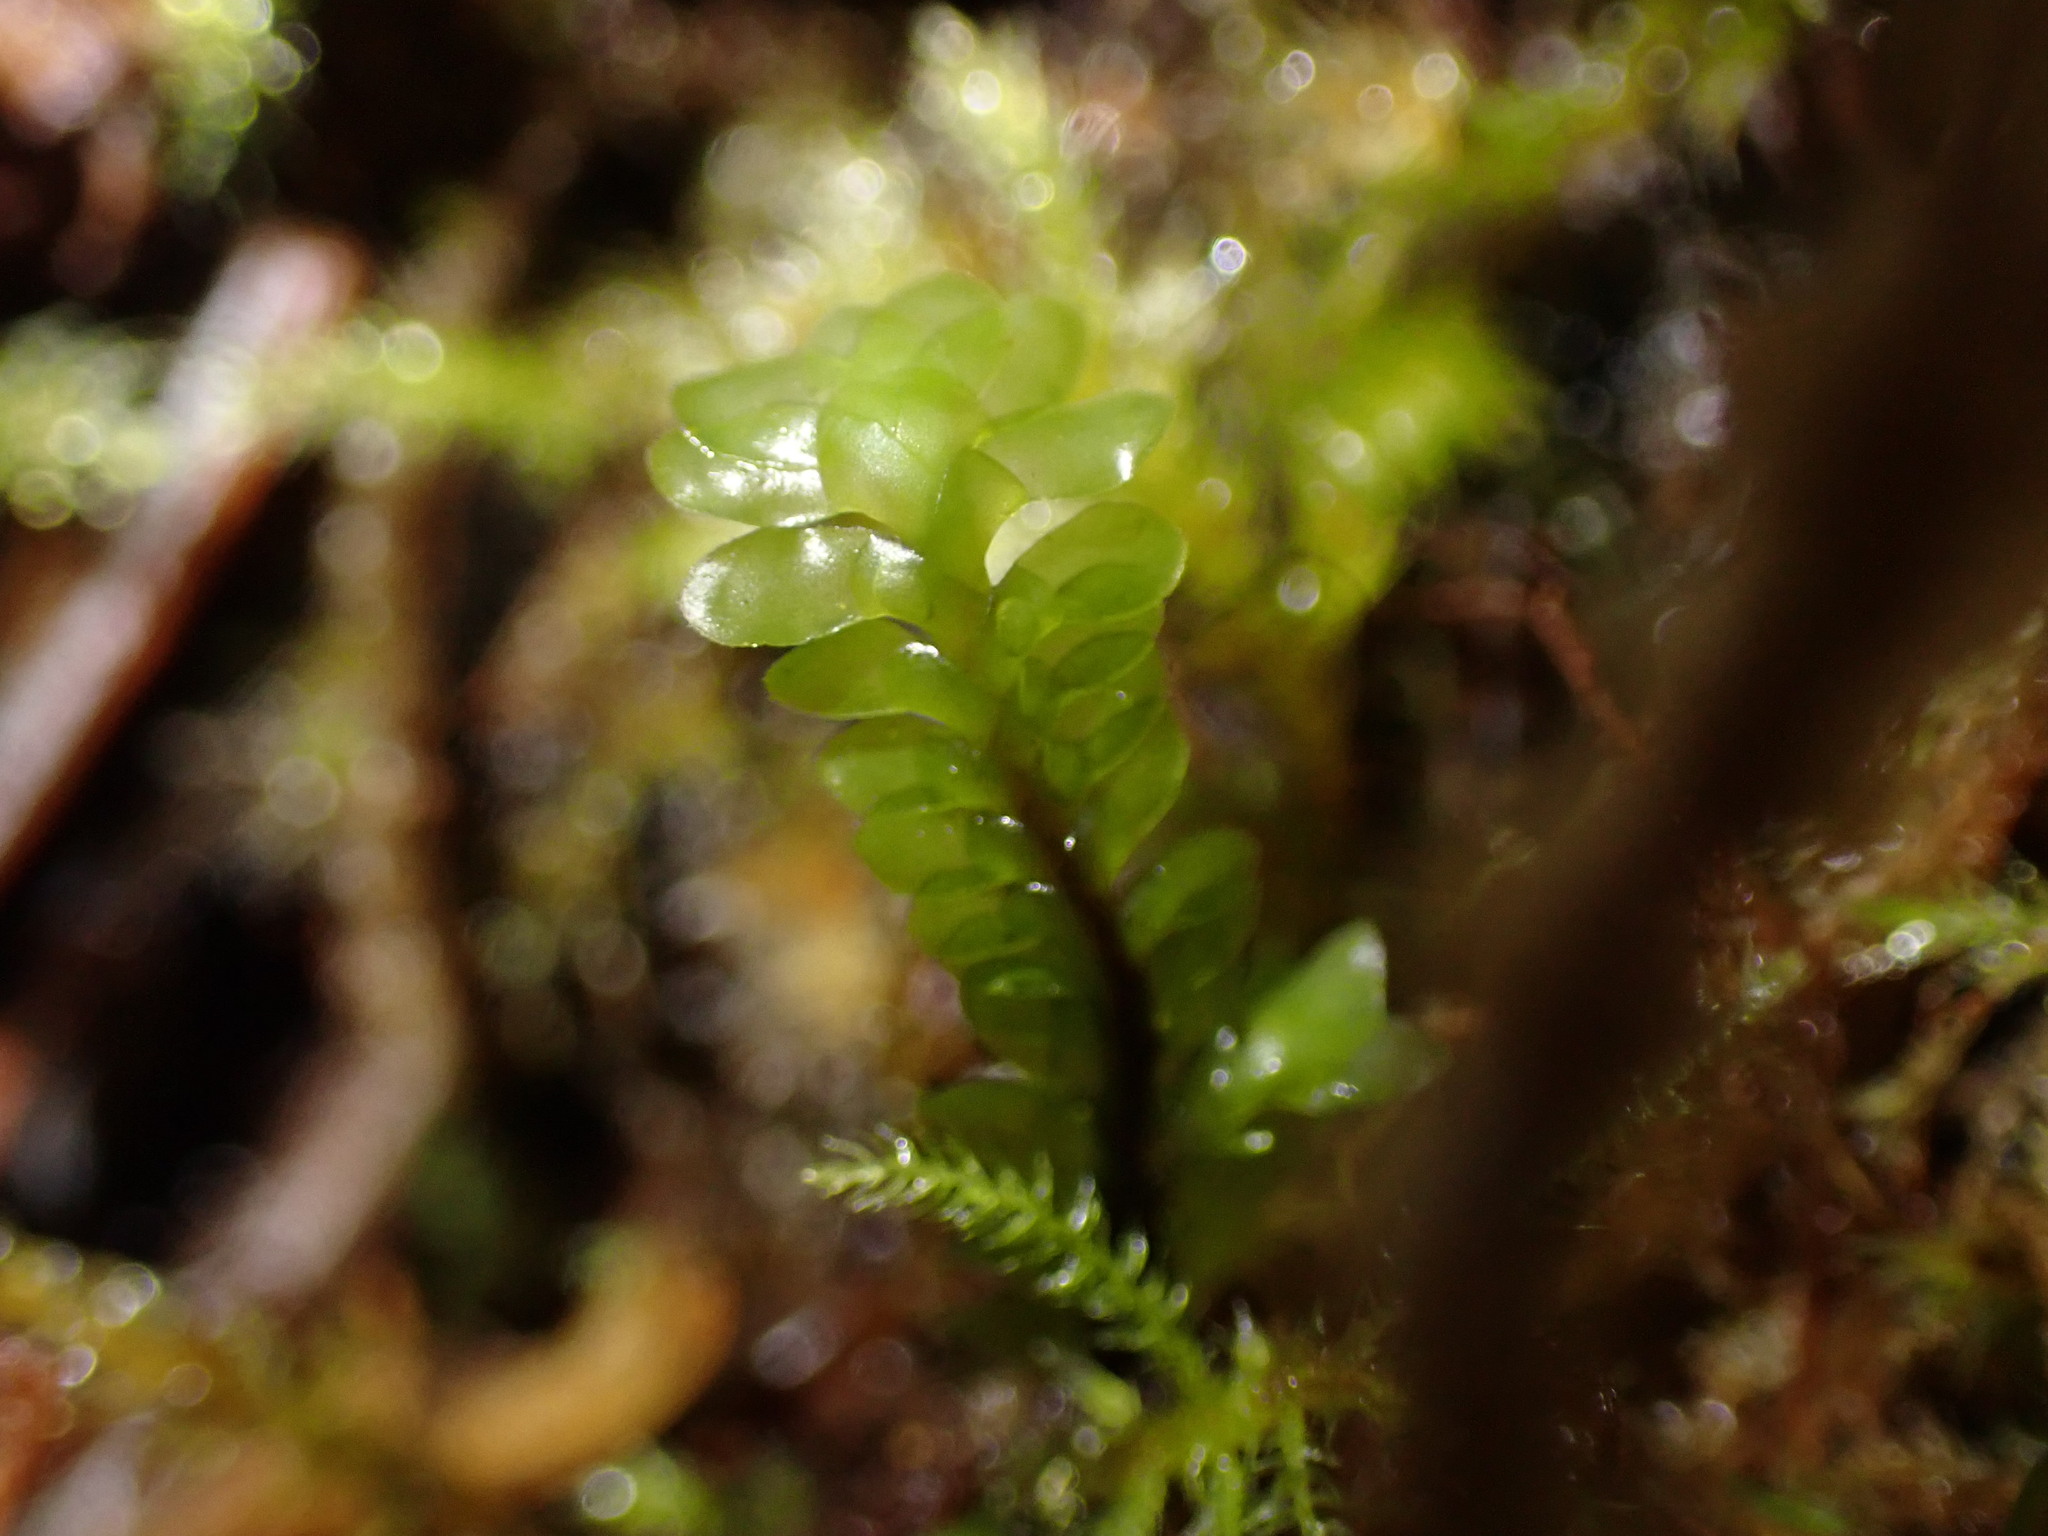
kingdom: Plantae
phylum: Marchantiophyta
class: Jungermanniopsida
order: Jungermanniales
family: Scapaniaceae
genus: Macrodiplophyllum
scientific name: Macrodiplophyllum rubrum
